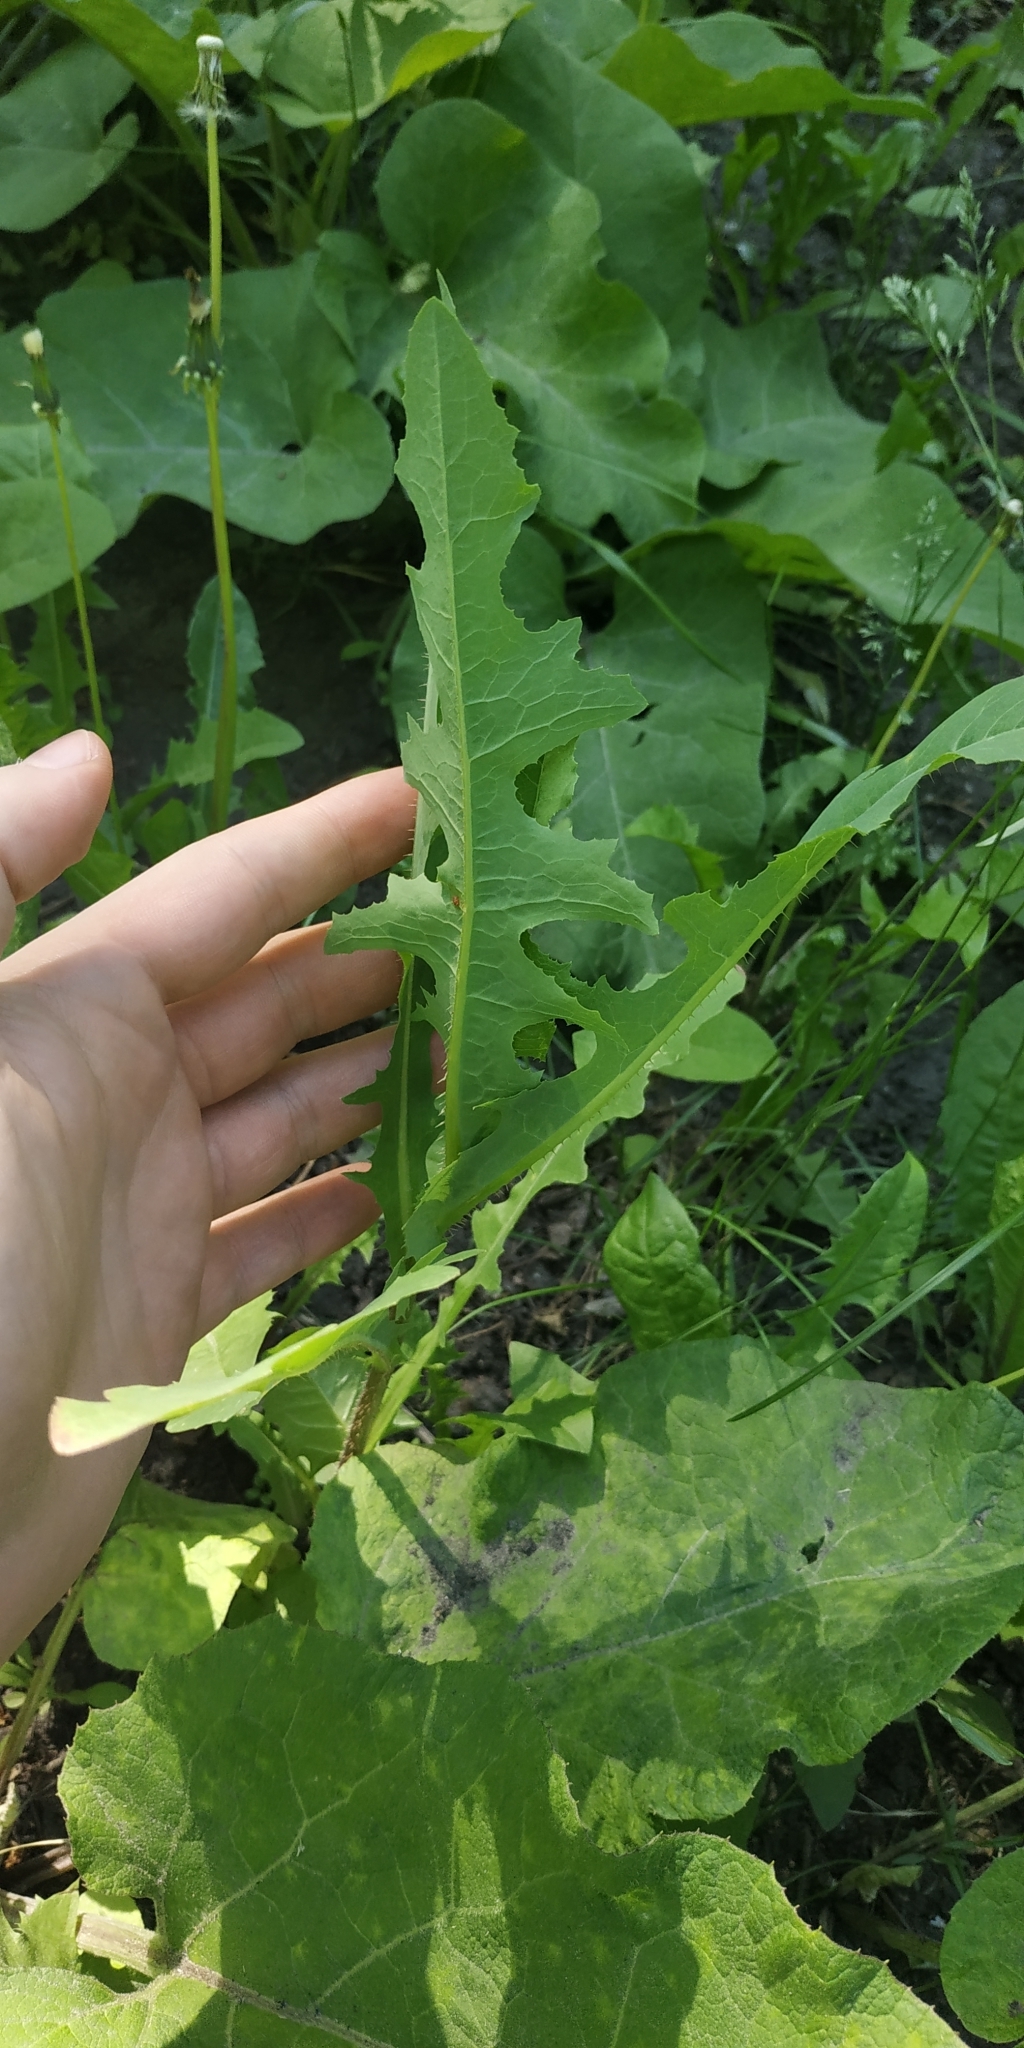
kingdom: Plantae
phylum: Tracheophyta
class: Magnoliopsida
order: Asterales
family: Asteraceae
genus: Lactuca
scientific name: Lactuca serriola
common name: Prickly lettuce
